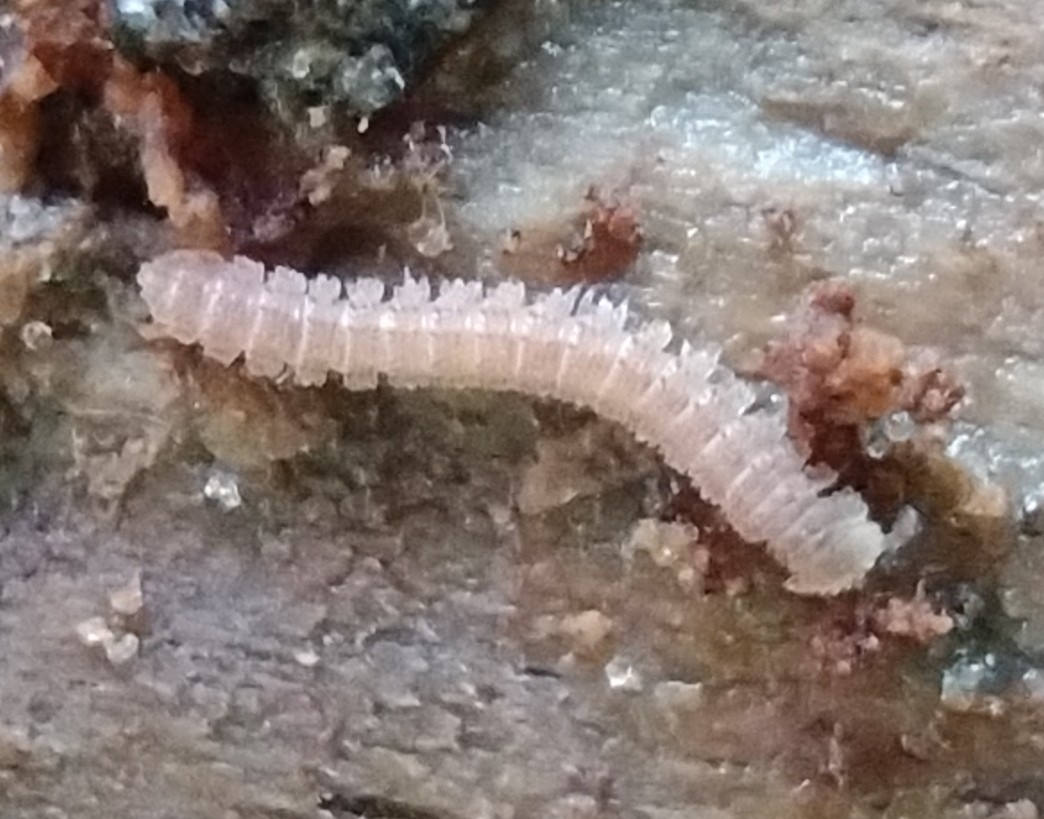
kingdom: Animalia
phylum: Arthropoda
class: Diplopoda
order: Polydesmida
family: Pyrgodesmidae
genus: Poratia
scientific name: Poratia obliterata
